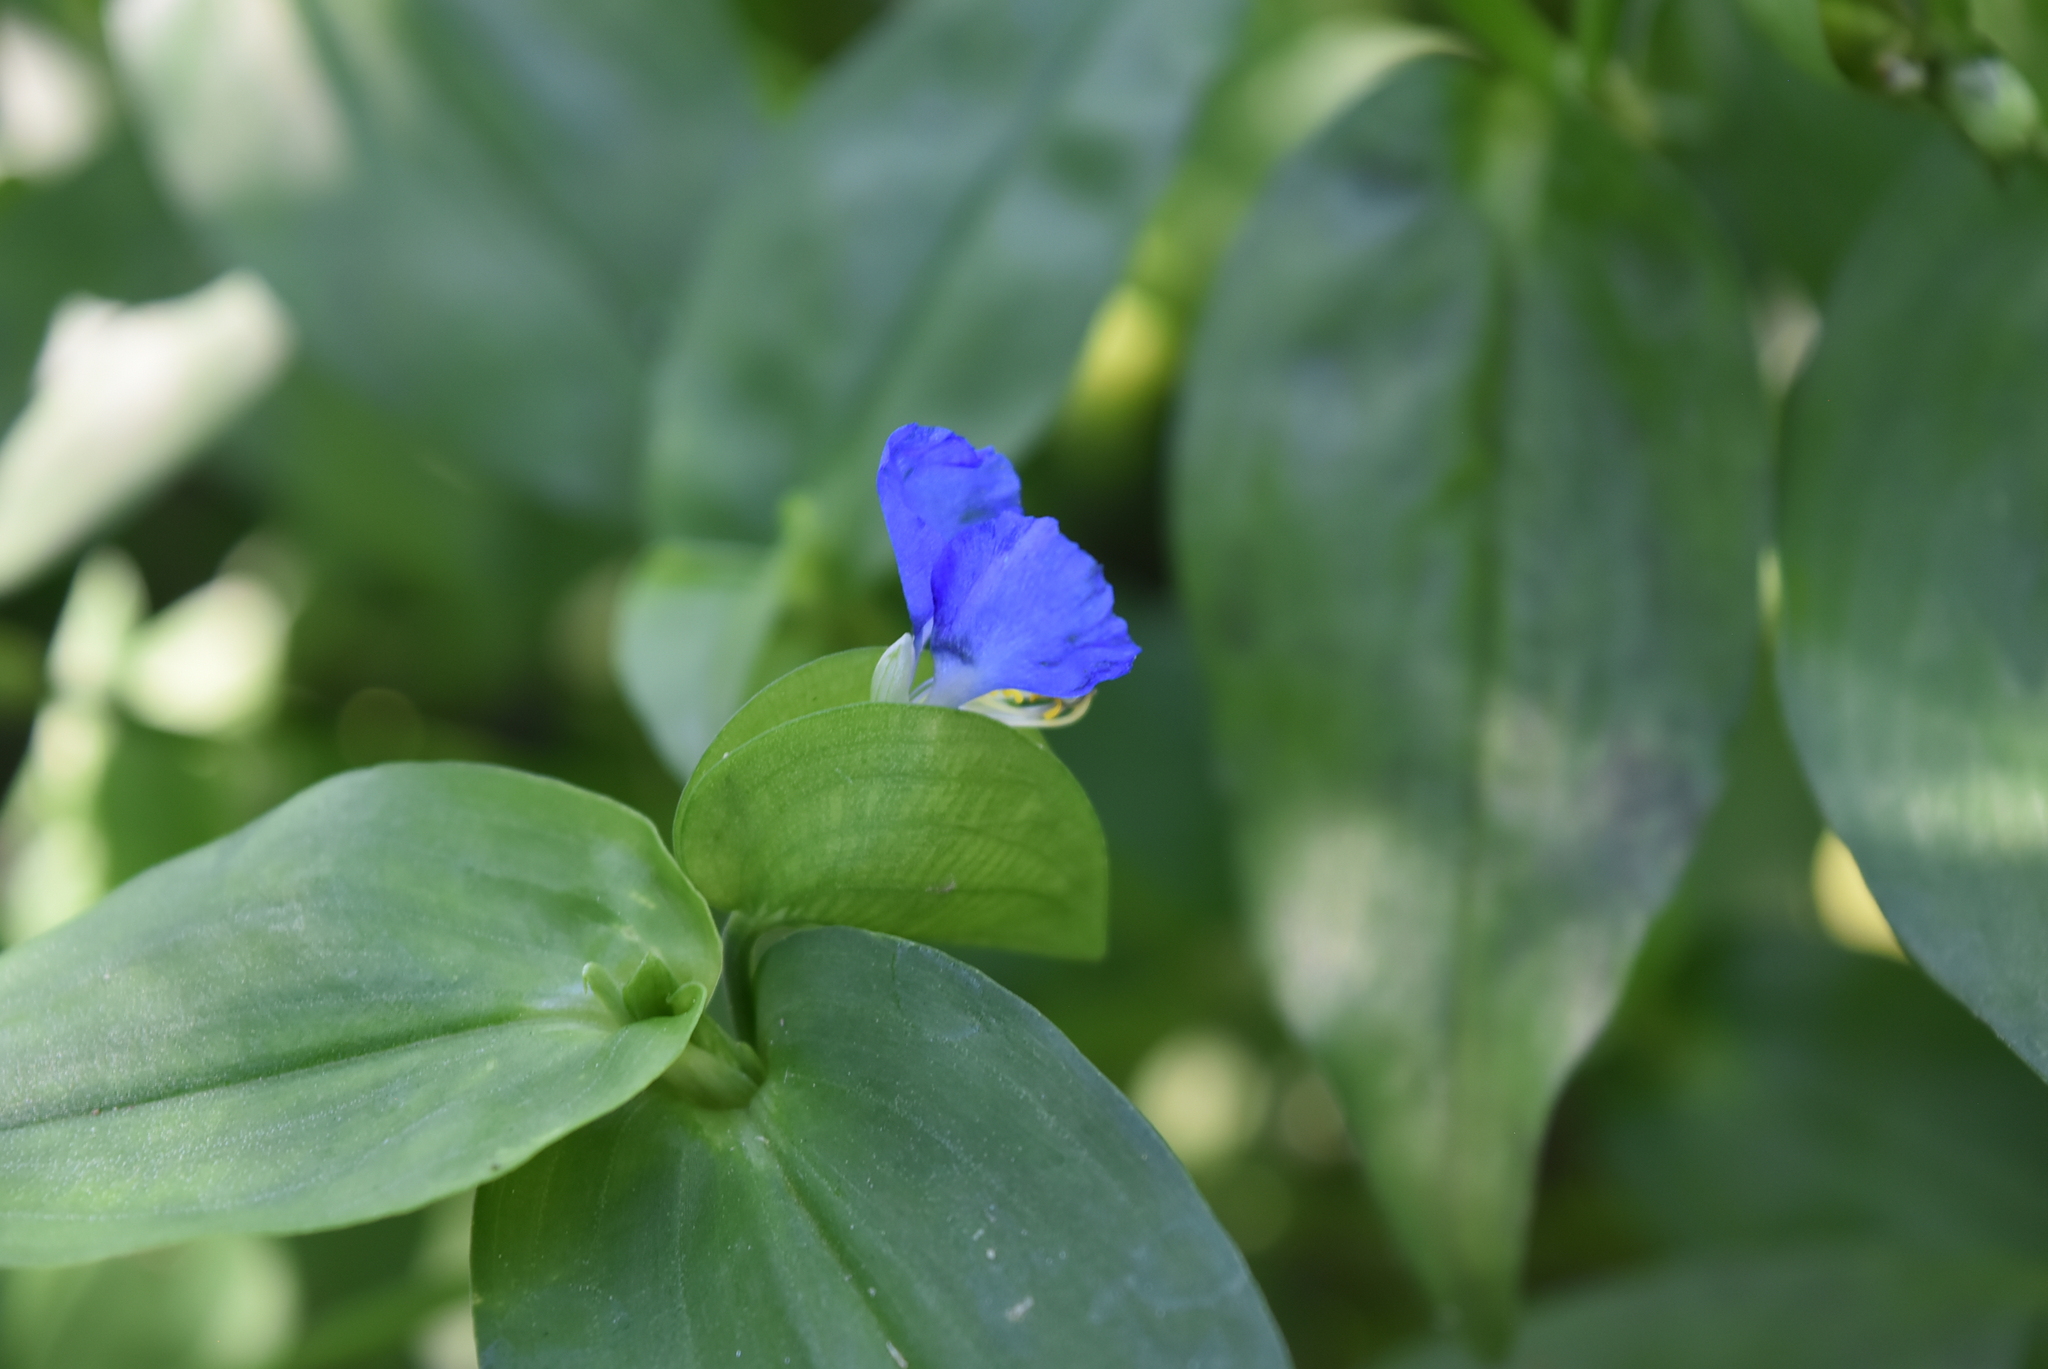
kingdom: Plantae
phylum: Tracheophyta
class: Liliopsida
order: Commelinales
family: Commelinaceae
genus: Commelina
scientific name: Commelina communis
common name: Asiatic dayflower
